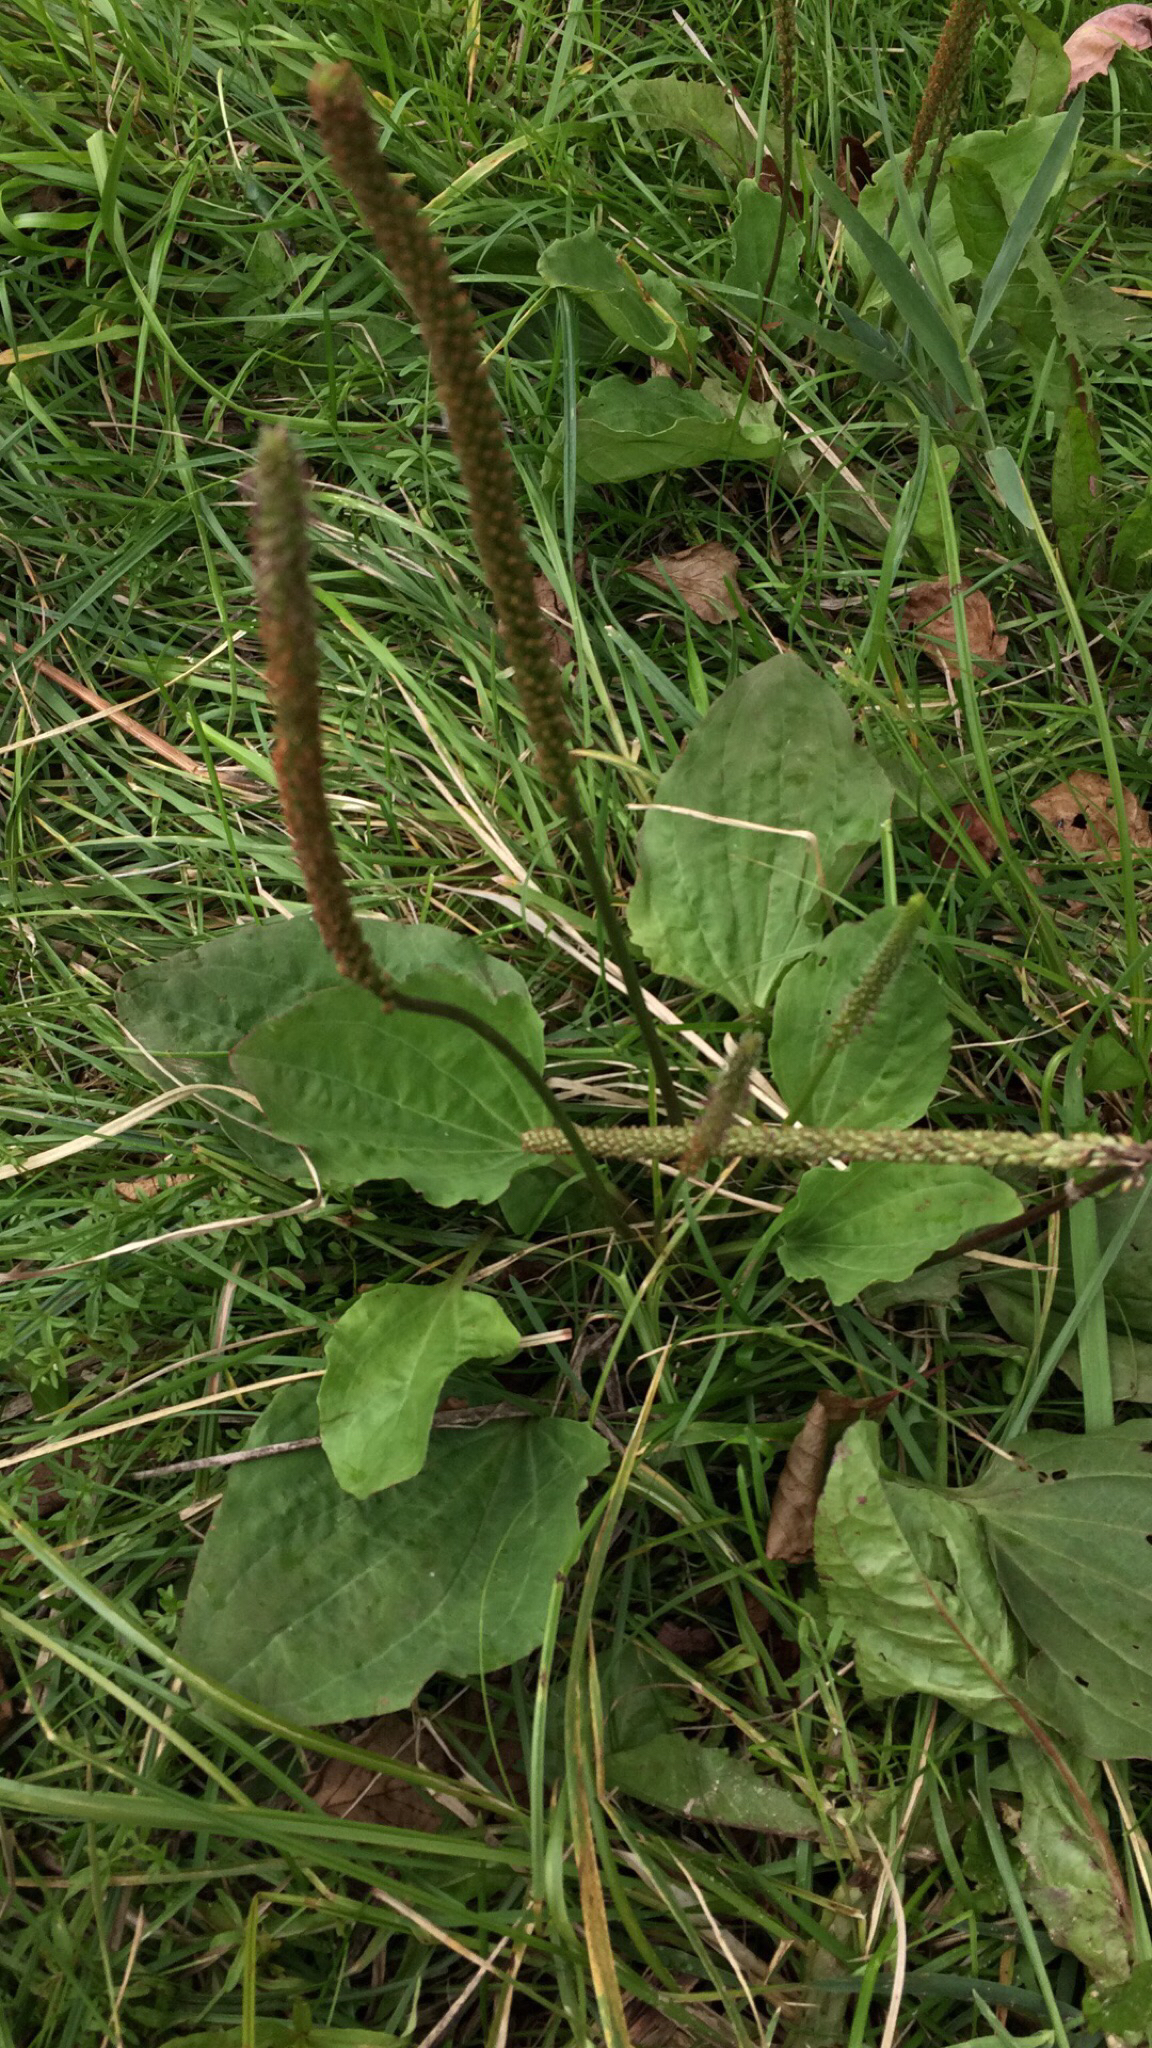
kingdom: Plantae
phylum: Tracheophyta
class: Magnoliopsida
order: Lamiales
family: Plantaginaceae
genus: Plantago
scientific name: Plantago major
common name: Common plantain
